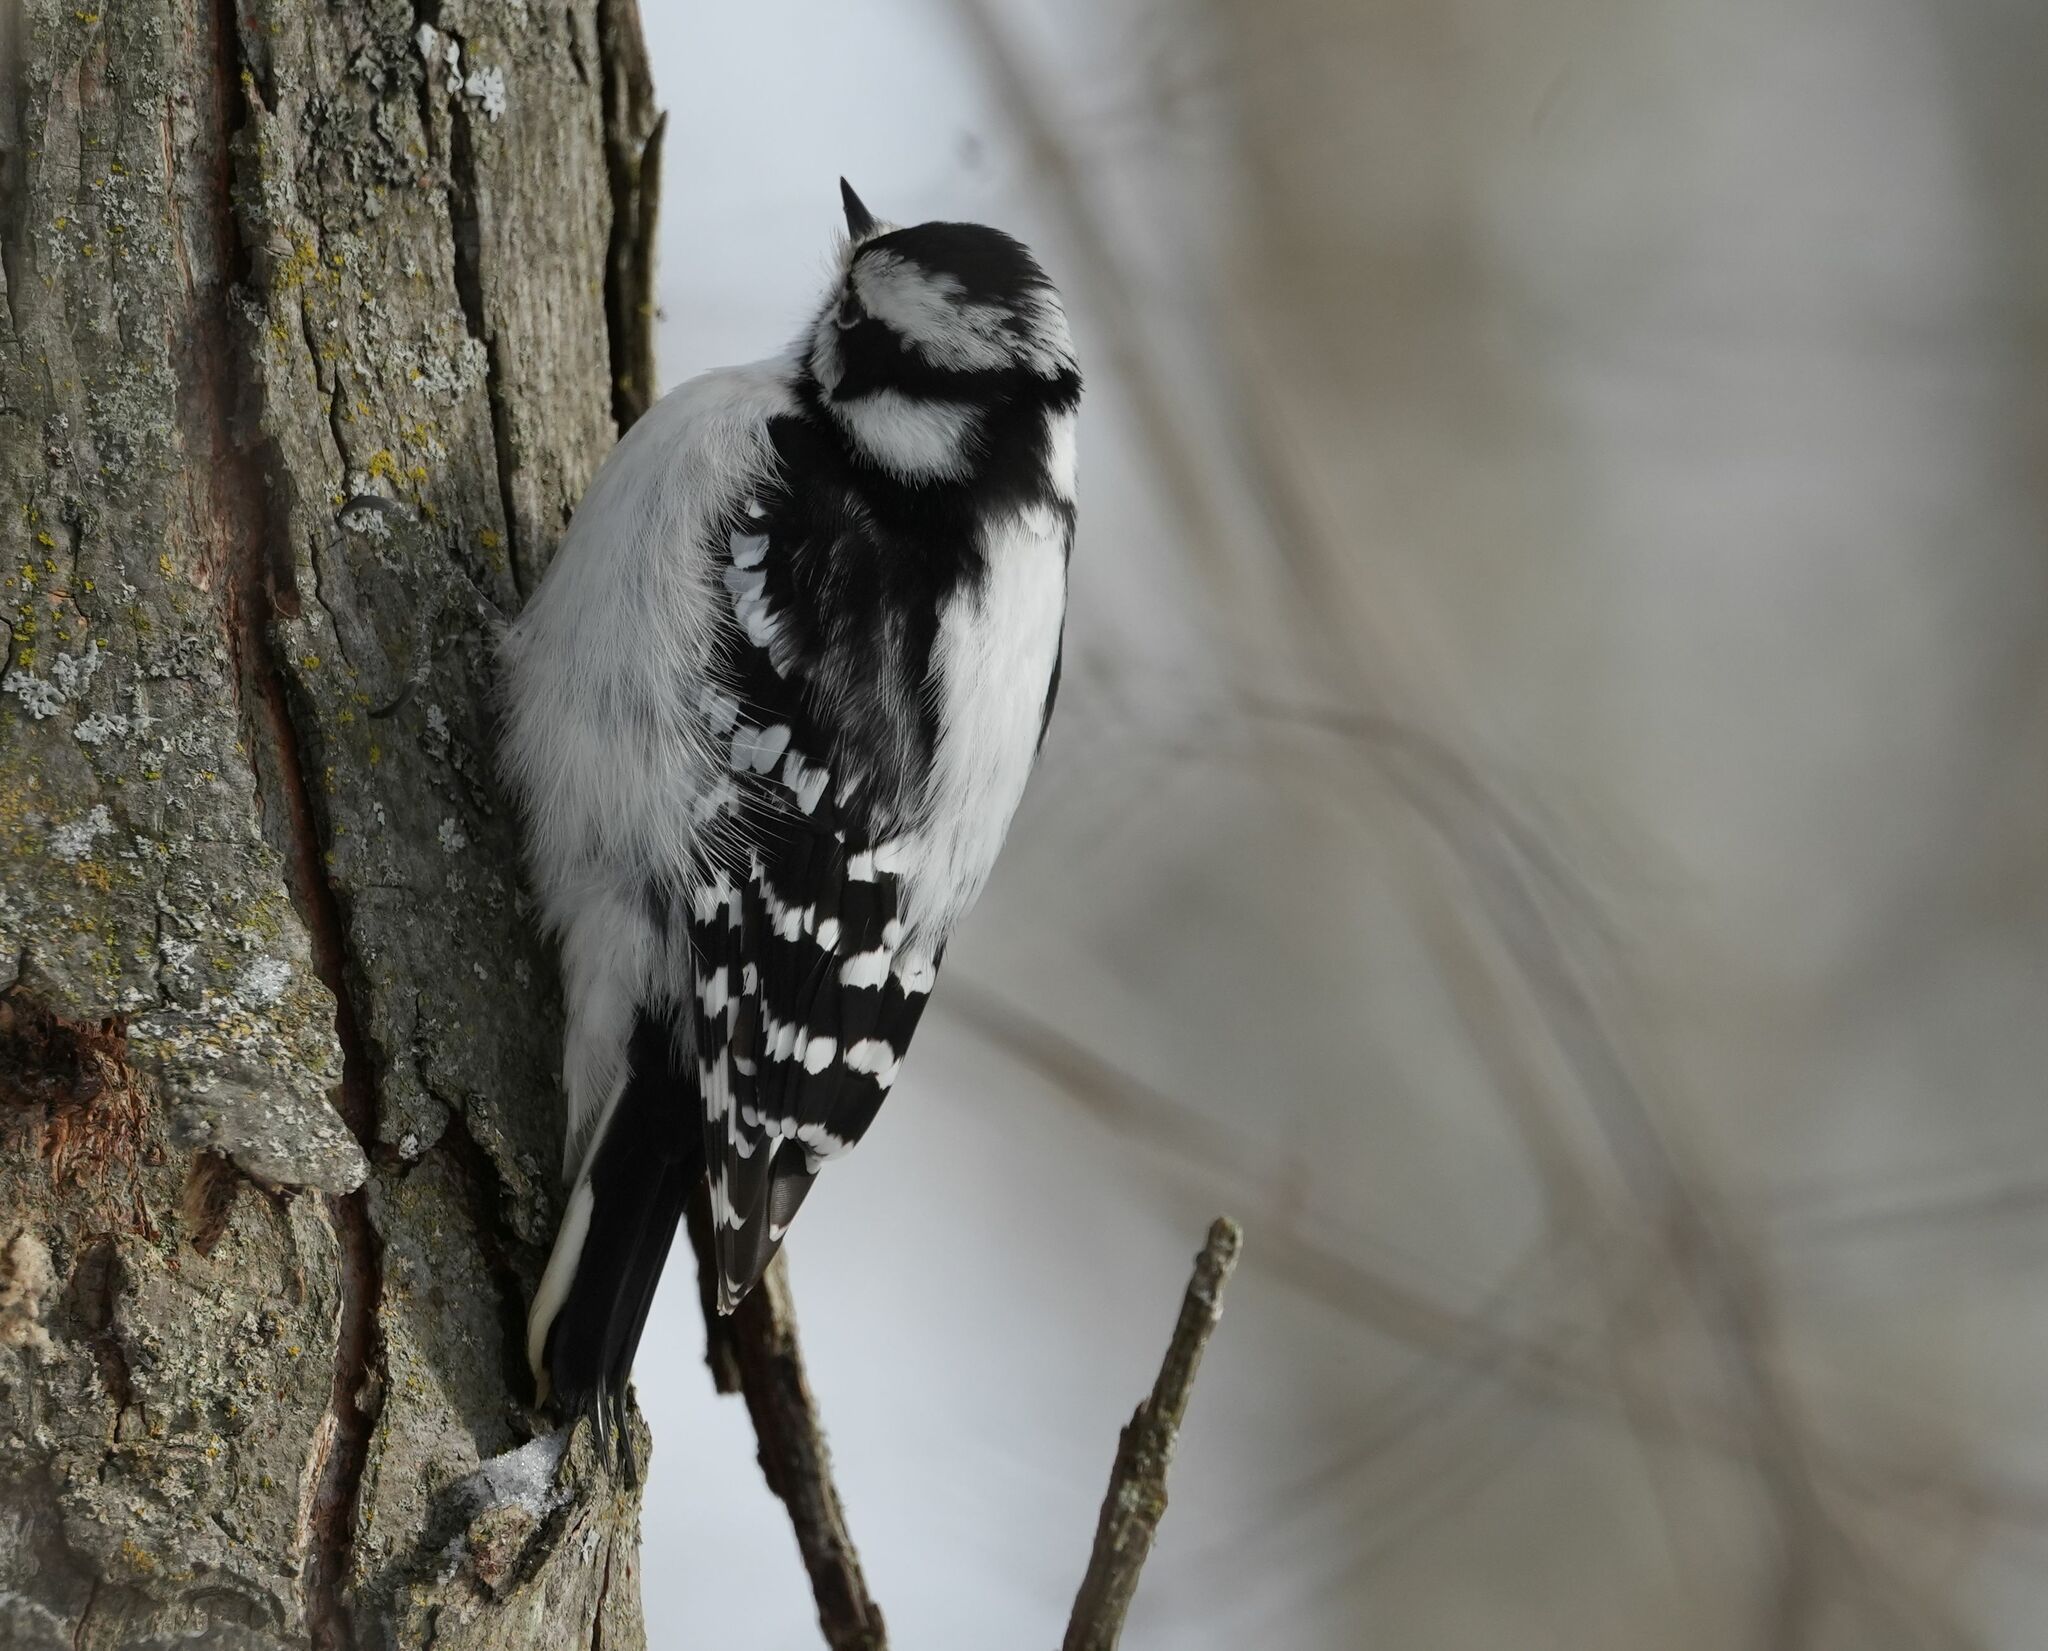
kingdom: Animalia
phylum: Chordata
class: Aves
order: Piciformes
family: Picidae
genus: Dryobates
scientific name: Dryobates pubescens
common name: Downy woodpecker
